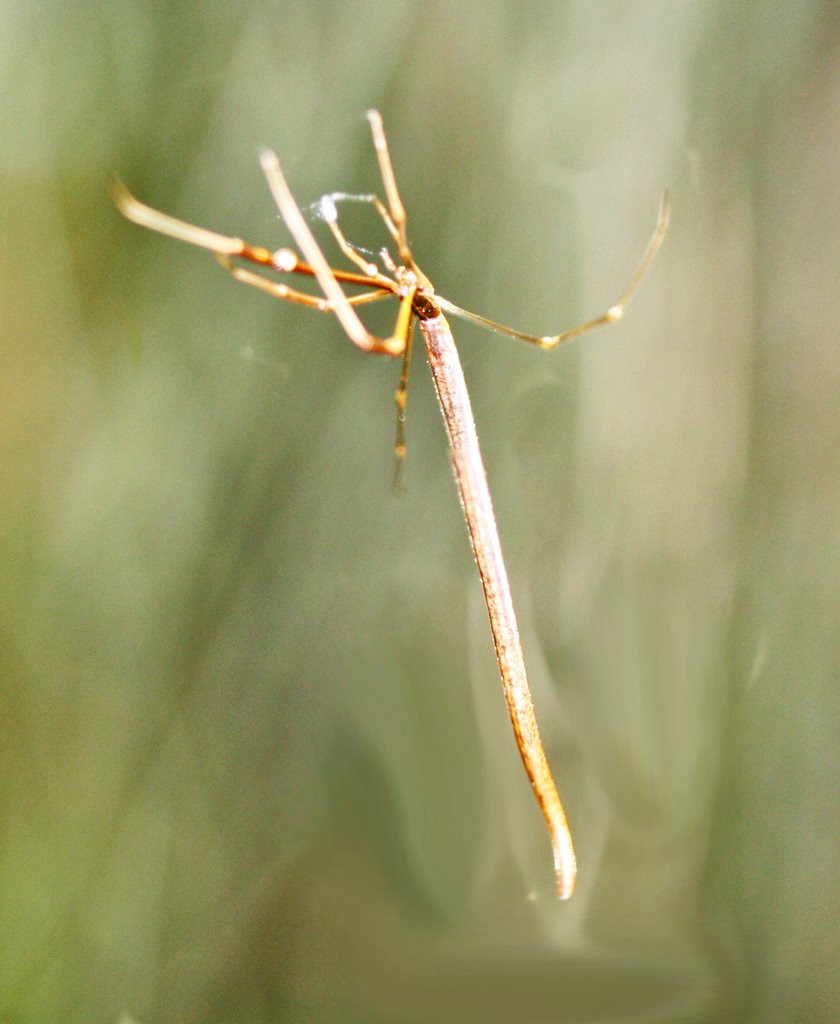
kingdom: Animalia
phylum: Arthropoda
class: Arachnida
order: Araneae
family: Theridiidae
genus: Ariamnes
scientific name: Ariamnes colubrinus
